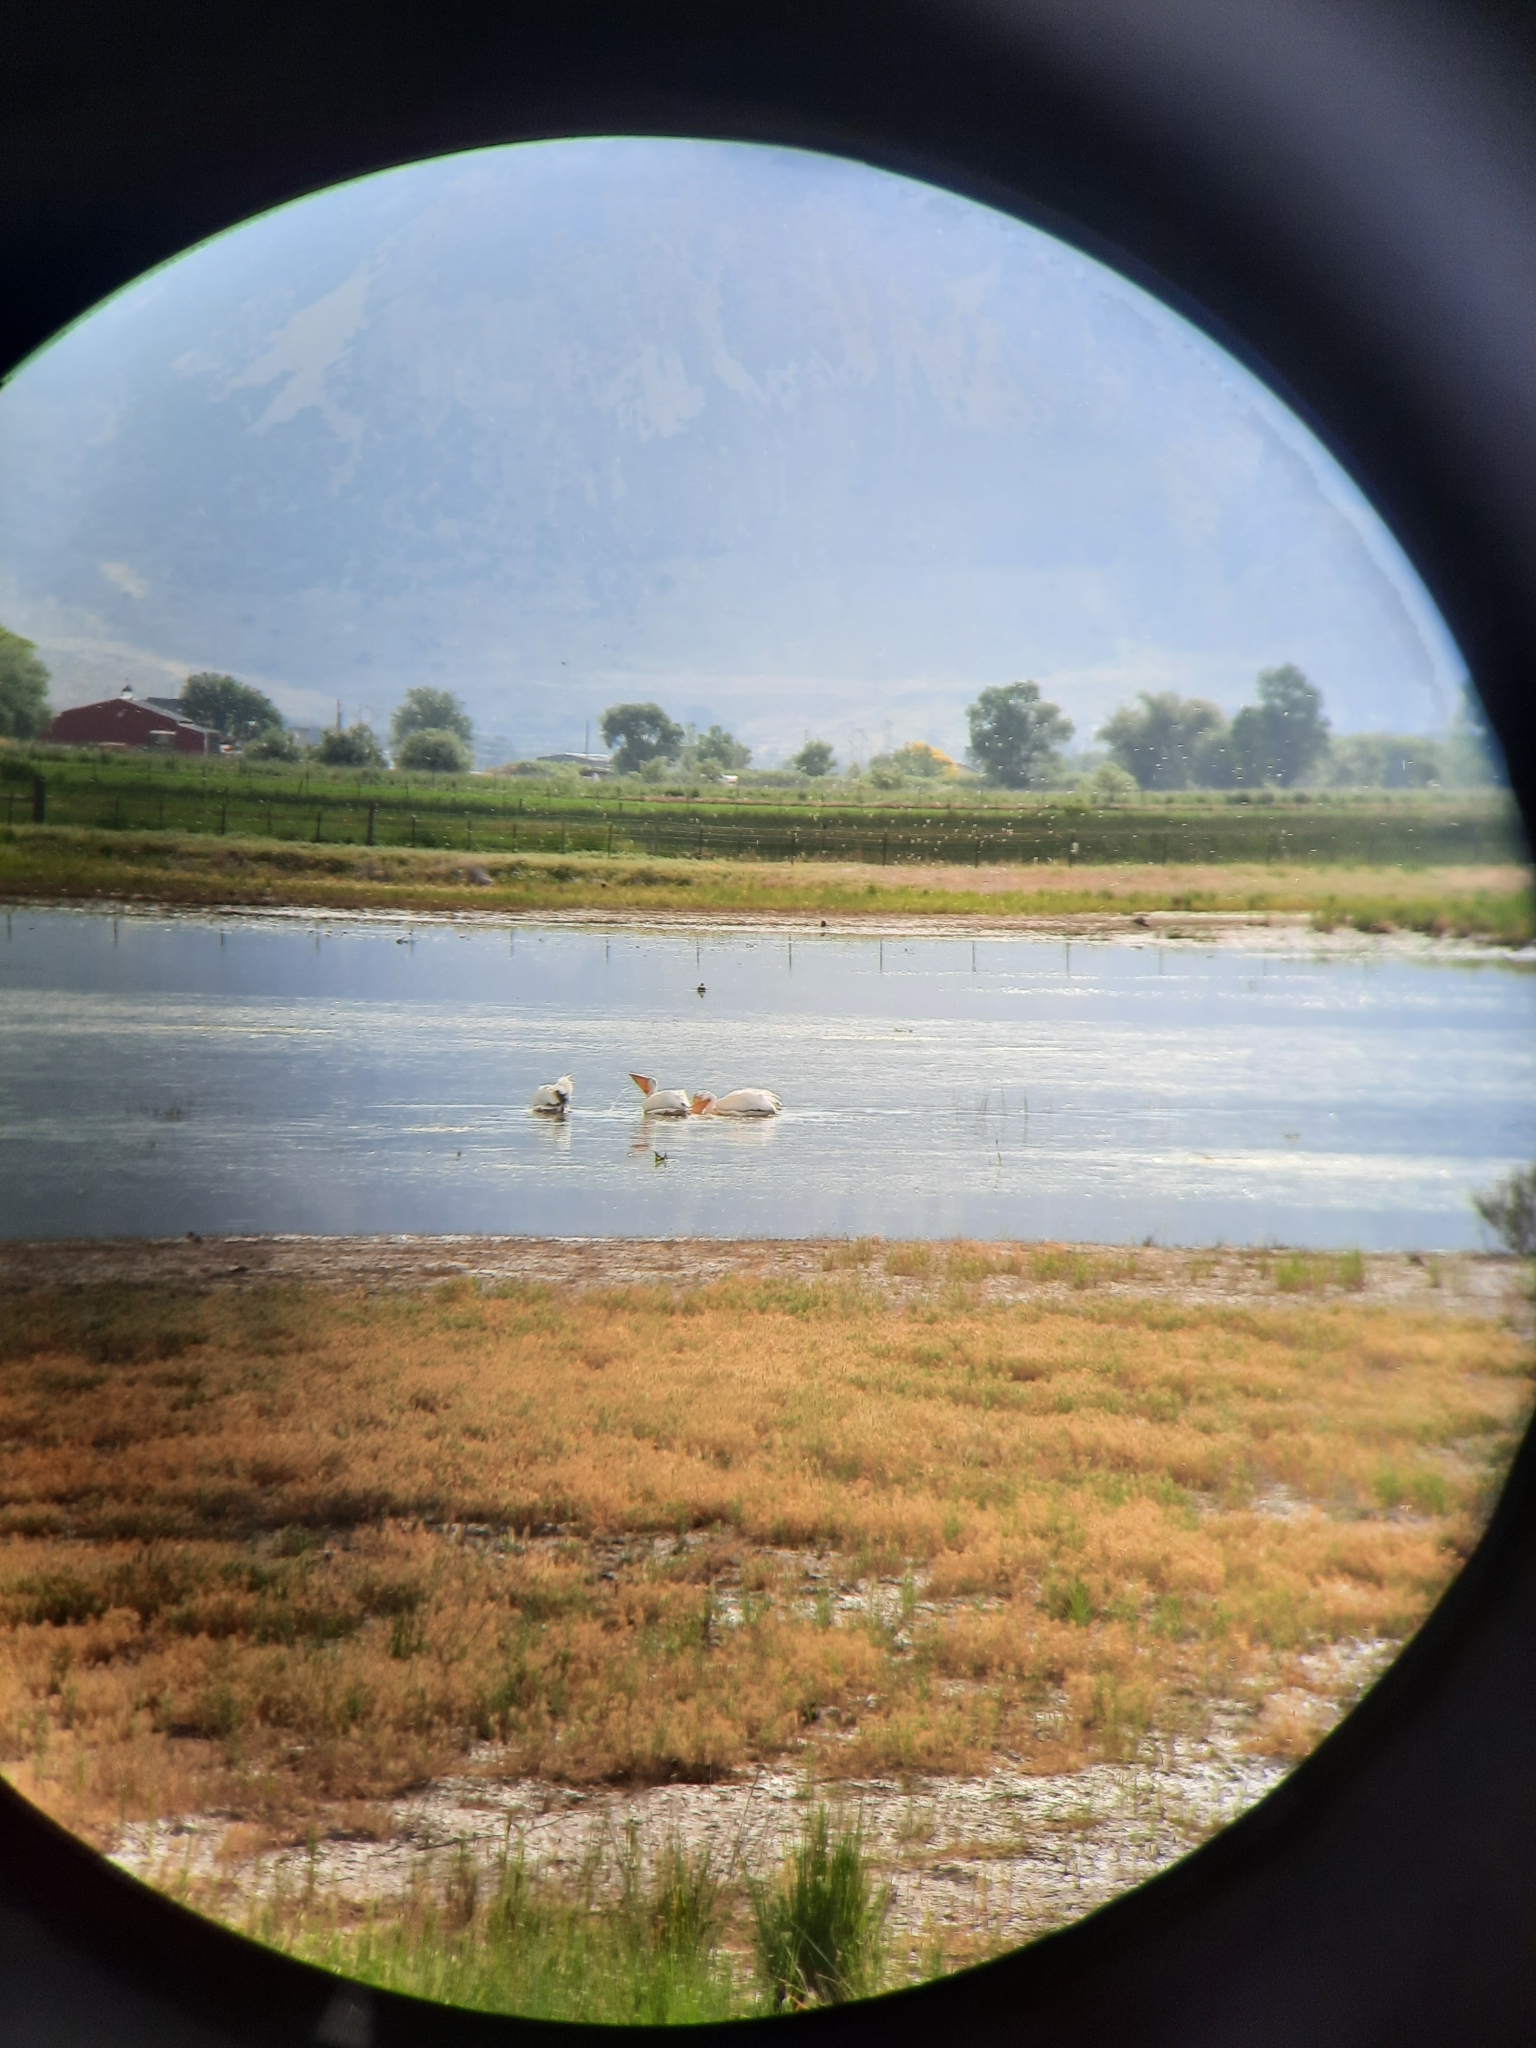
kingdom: Animalia
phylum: Chordata
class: Aves
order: Pelecaniformes
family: Pelecanidae
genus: Pelecanus
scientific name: Pelecanus erythrorhynchos
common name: American white pelican
